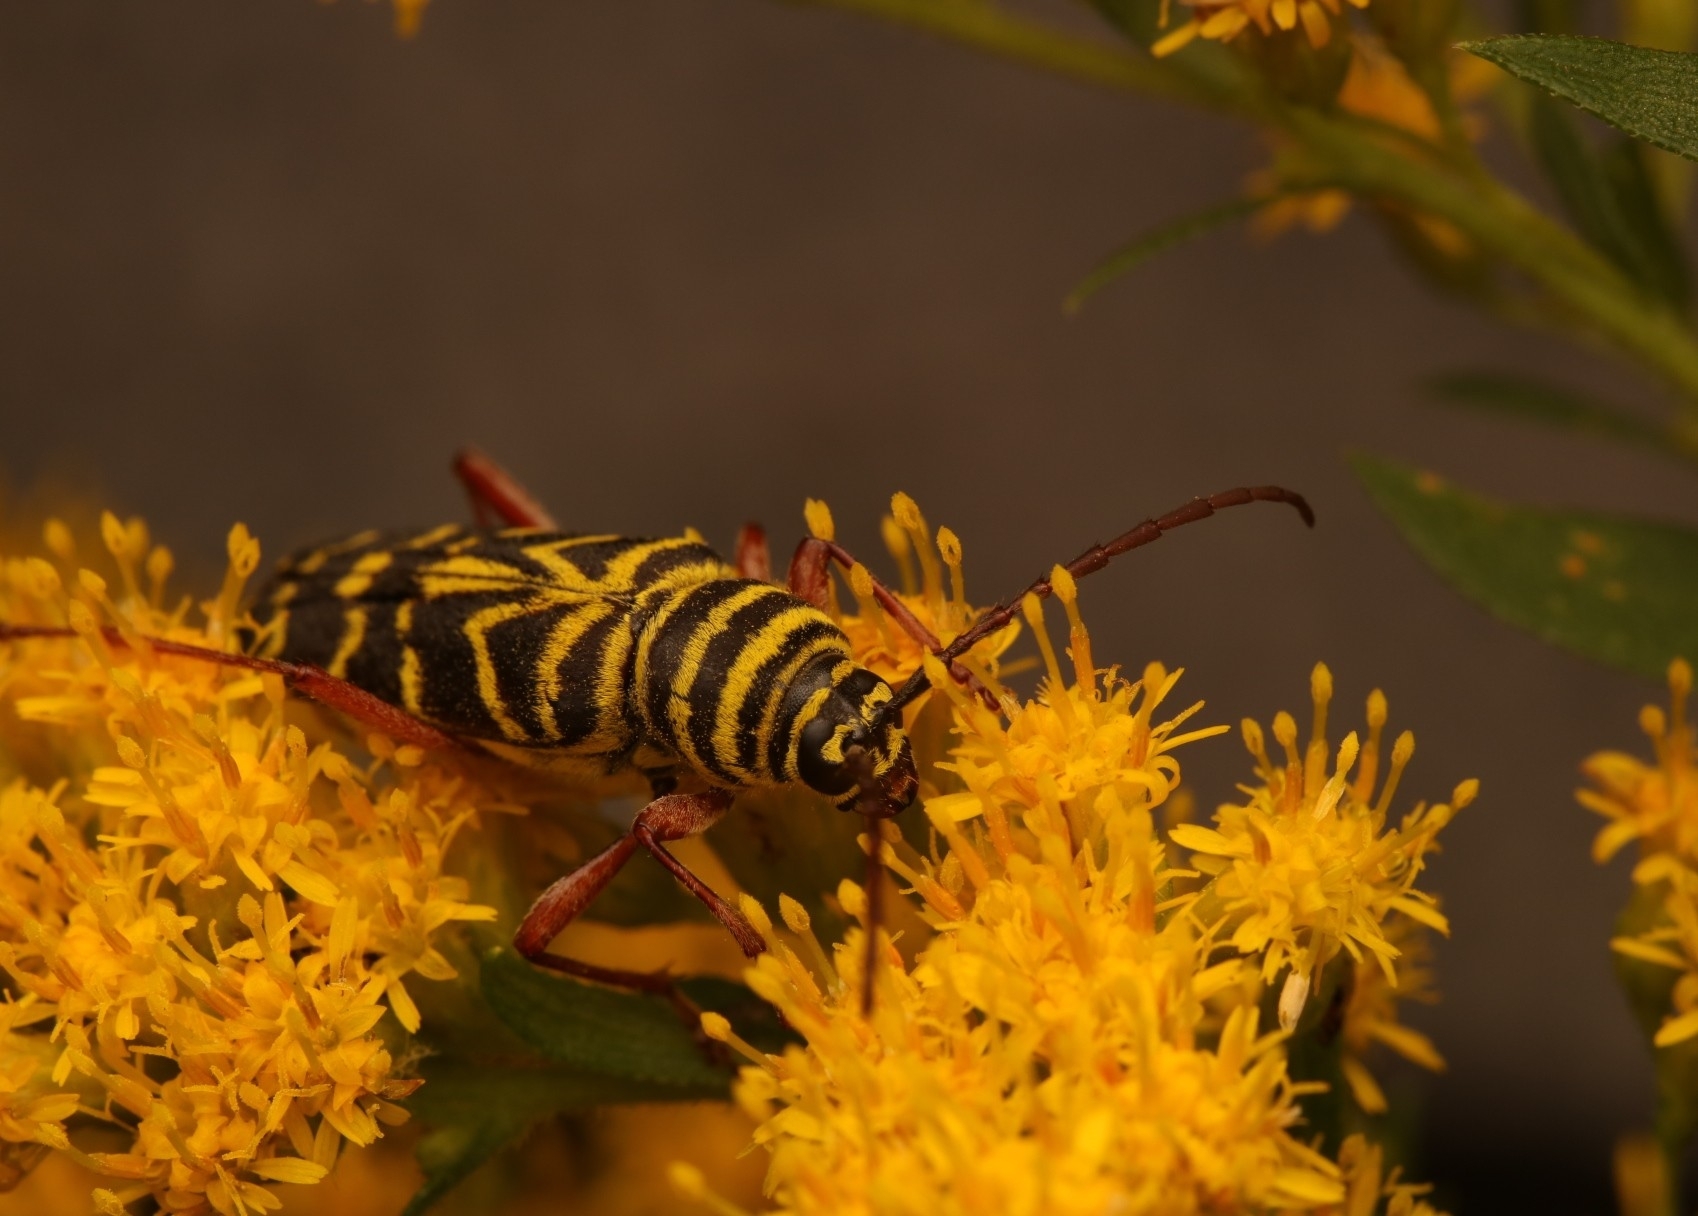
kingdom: Animalia
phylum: Arthropoda
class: Insecta
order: Coleoptera
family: Cerambycidae
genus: Megacyllene
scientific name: Megacyllene robiniae
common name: Locust borer
